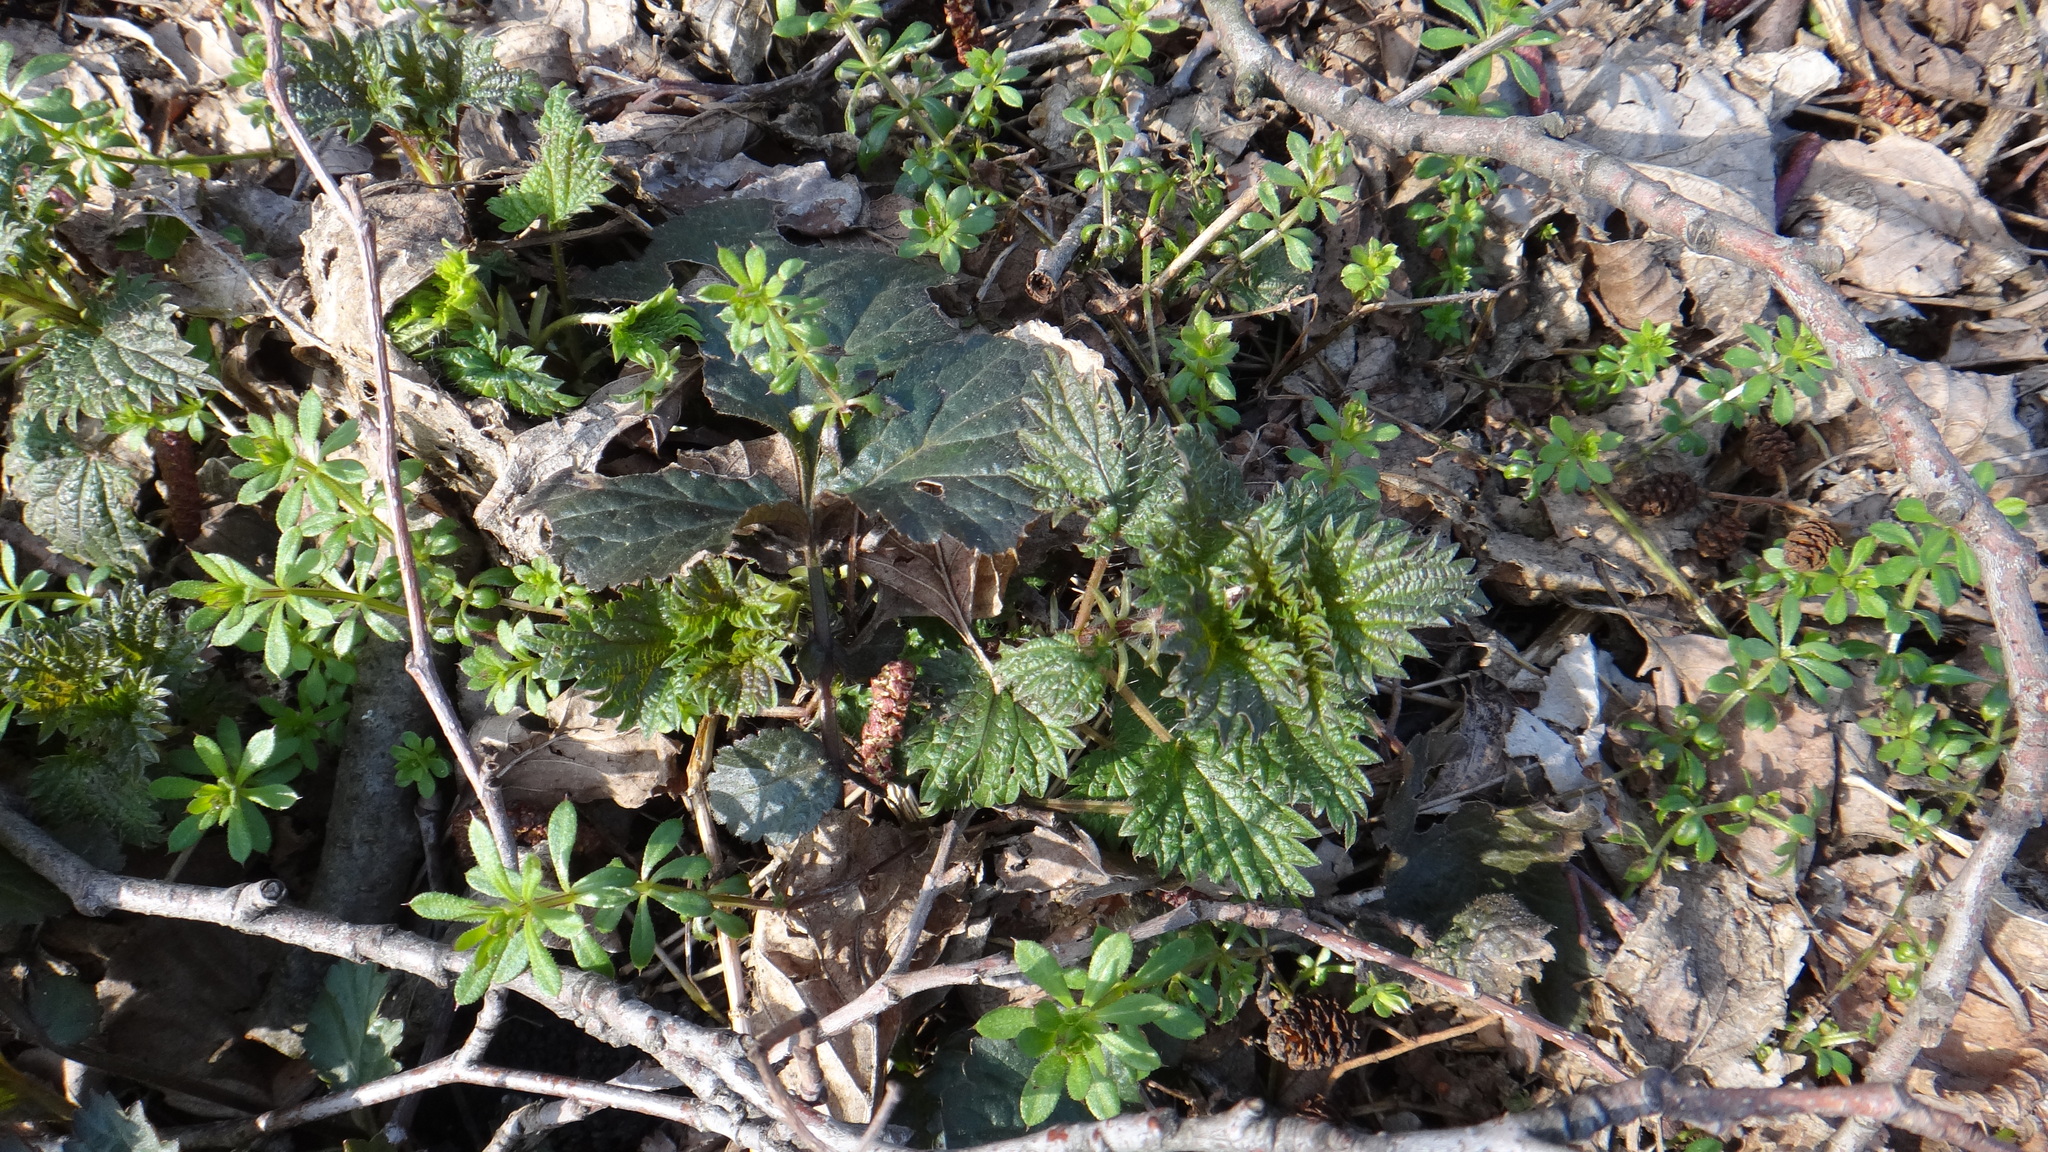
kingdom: Plantae
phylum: Tracheophyta
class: Magnoliopsida
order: Rosales
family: Urticaceae
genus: Urtica
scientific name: Urtica dioica
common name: Common nettle
